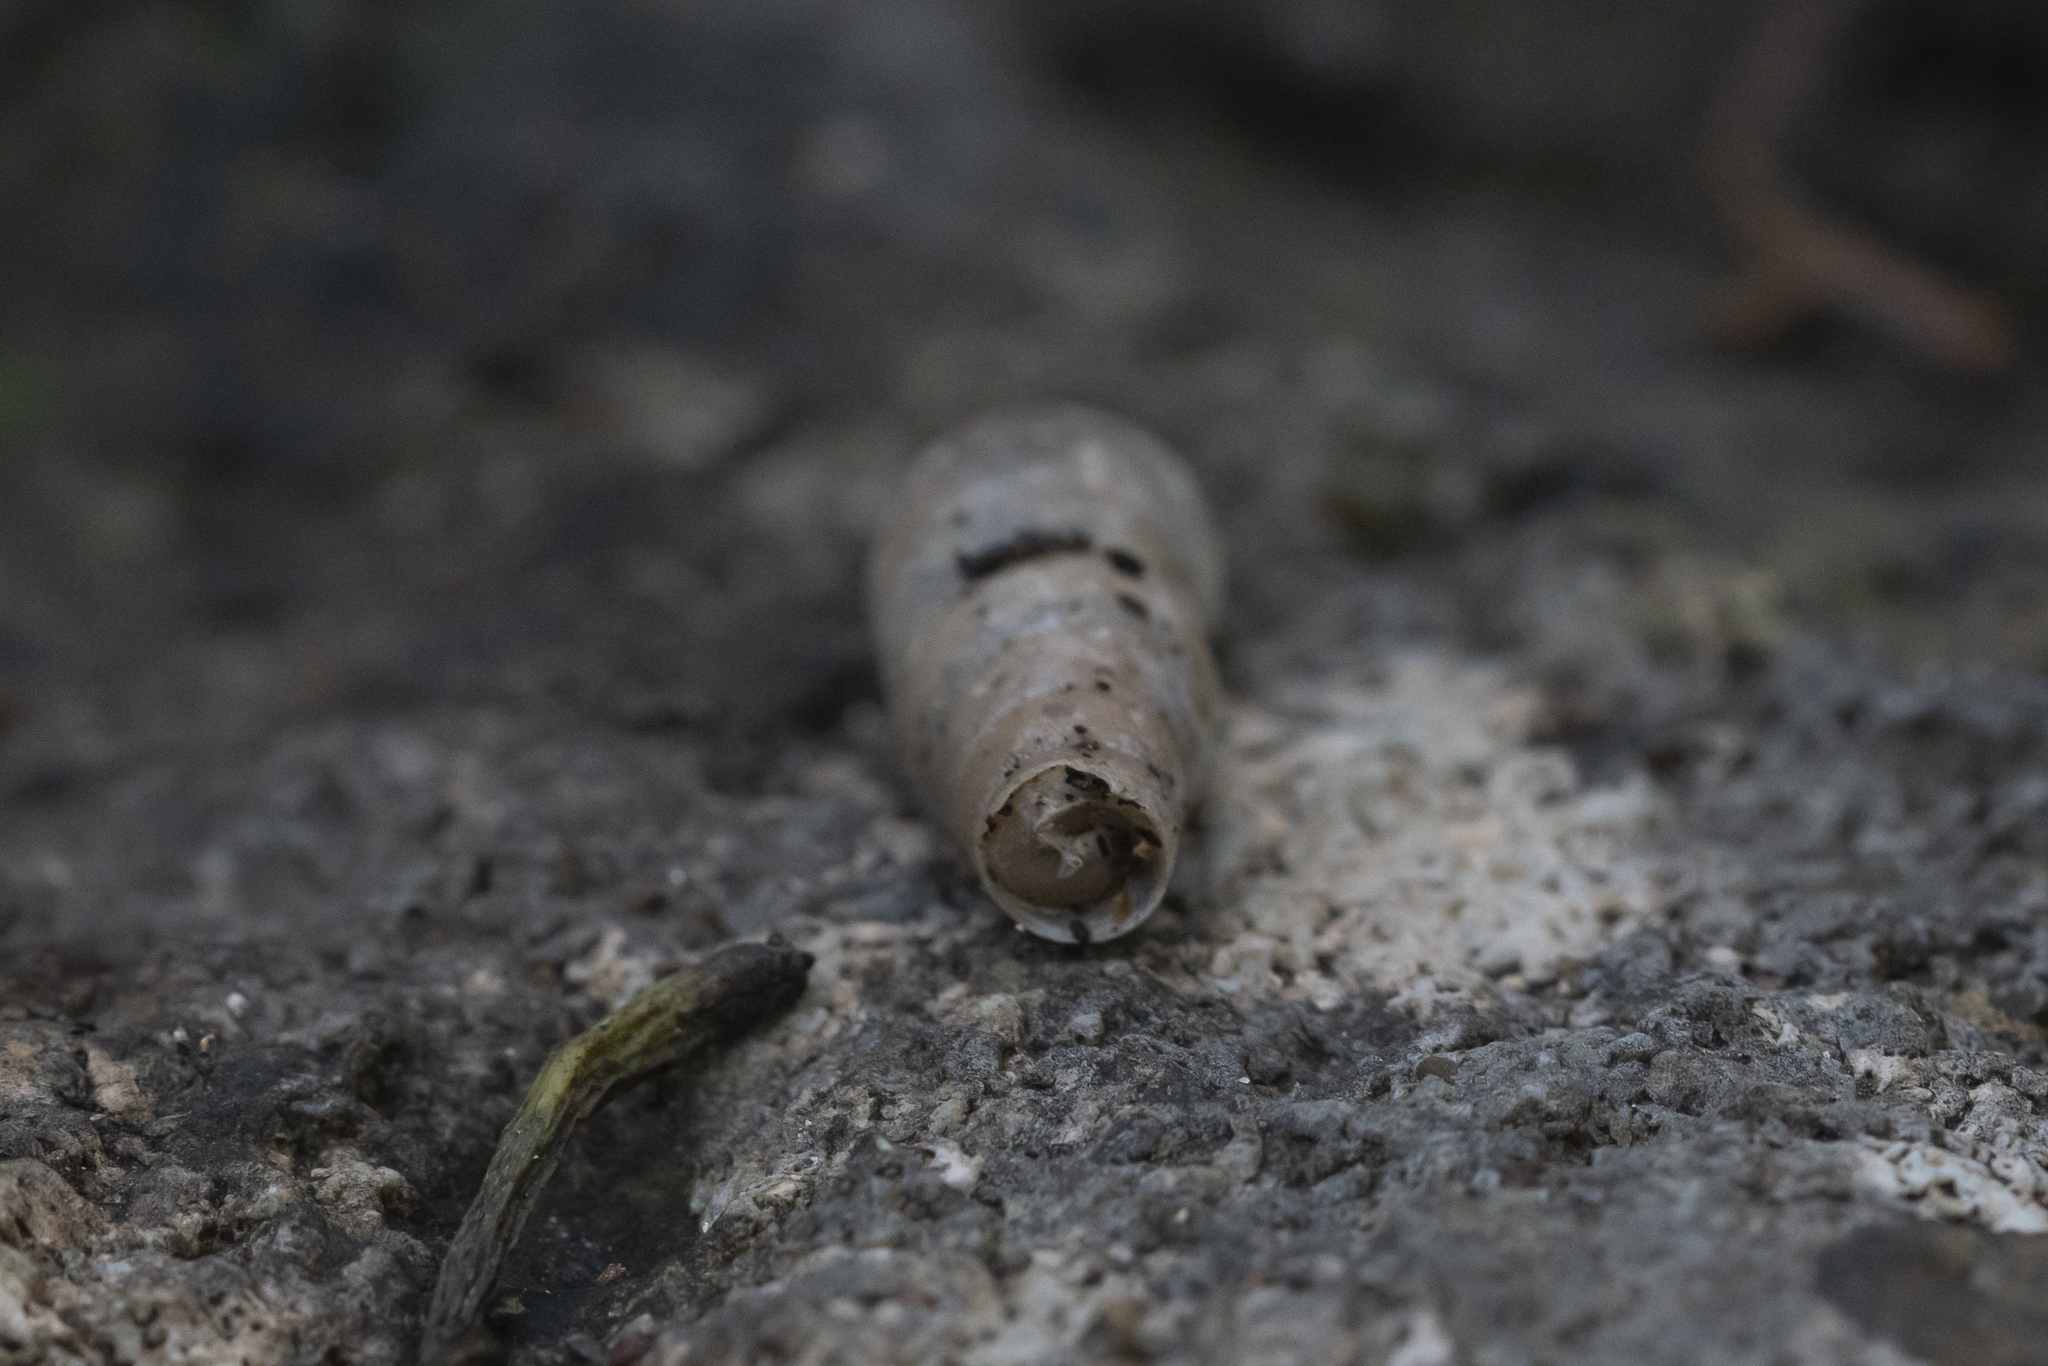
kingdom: Animalia
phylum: Mollusca
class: Gastropoda
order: Stylommatophora
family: Achatinidae
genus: Rumina
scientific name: Rumina saharica
